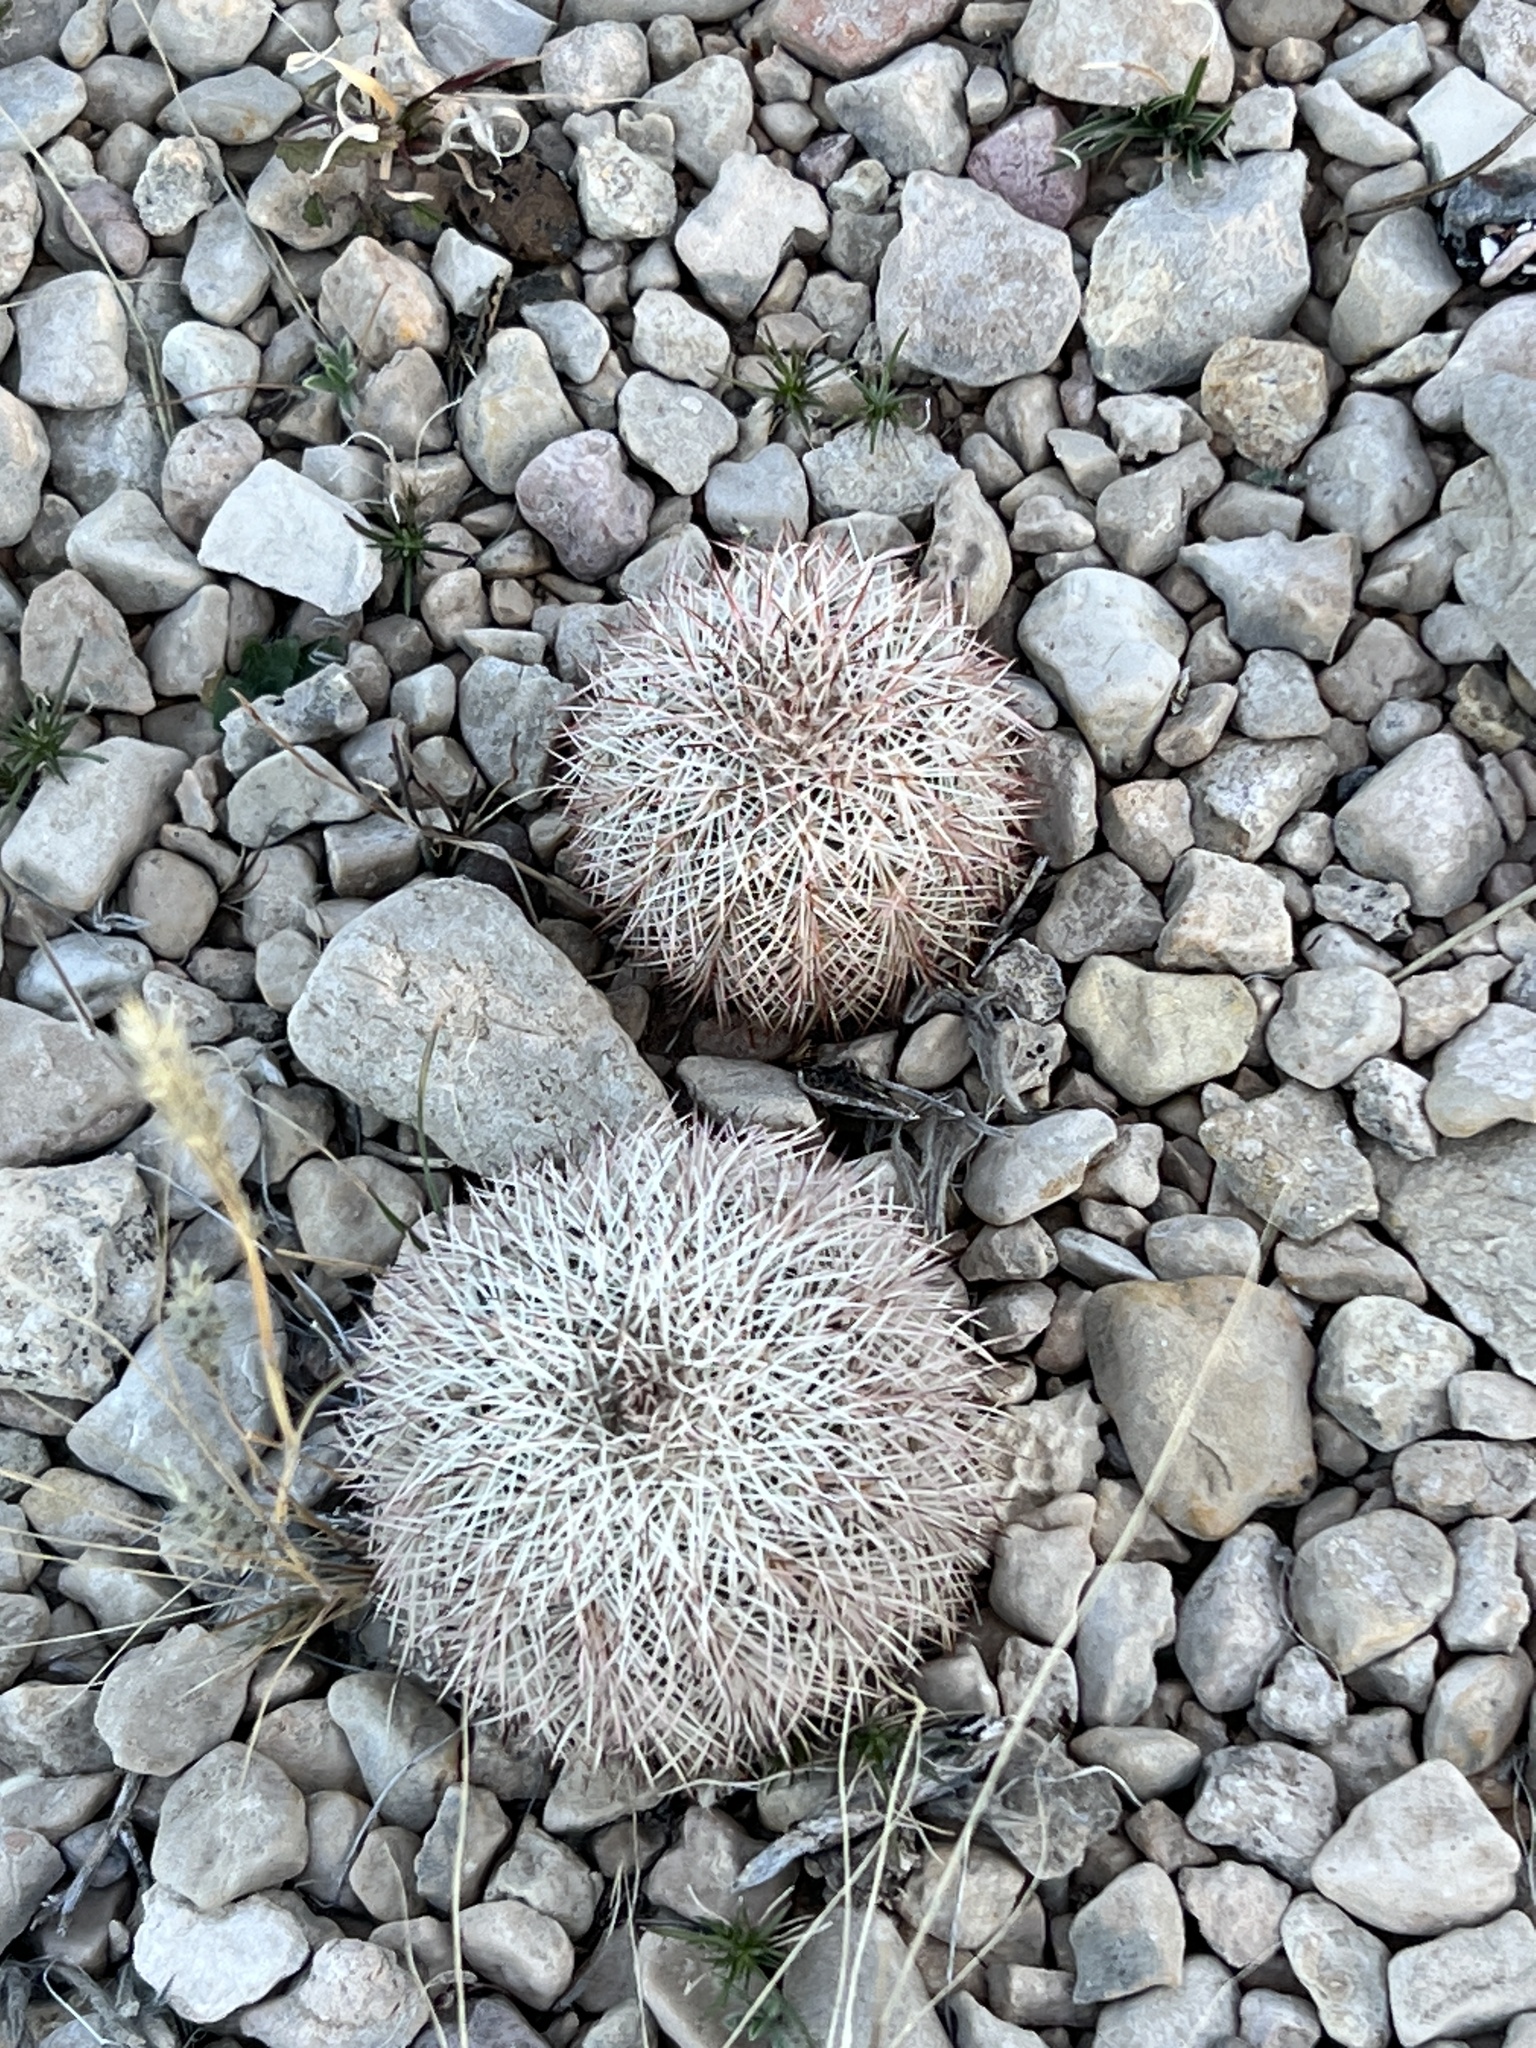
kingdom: Plantae
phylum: Tracheophyta
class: Magnoliopsida
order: Caryophyllales
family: Cactaceae
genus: Echinocereus
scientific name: Echinocereus dasyacanthus
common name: Spiny hedgehog cactus
